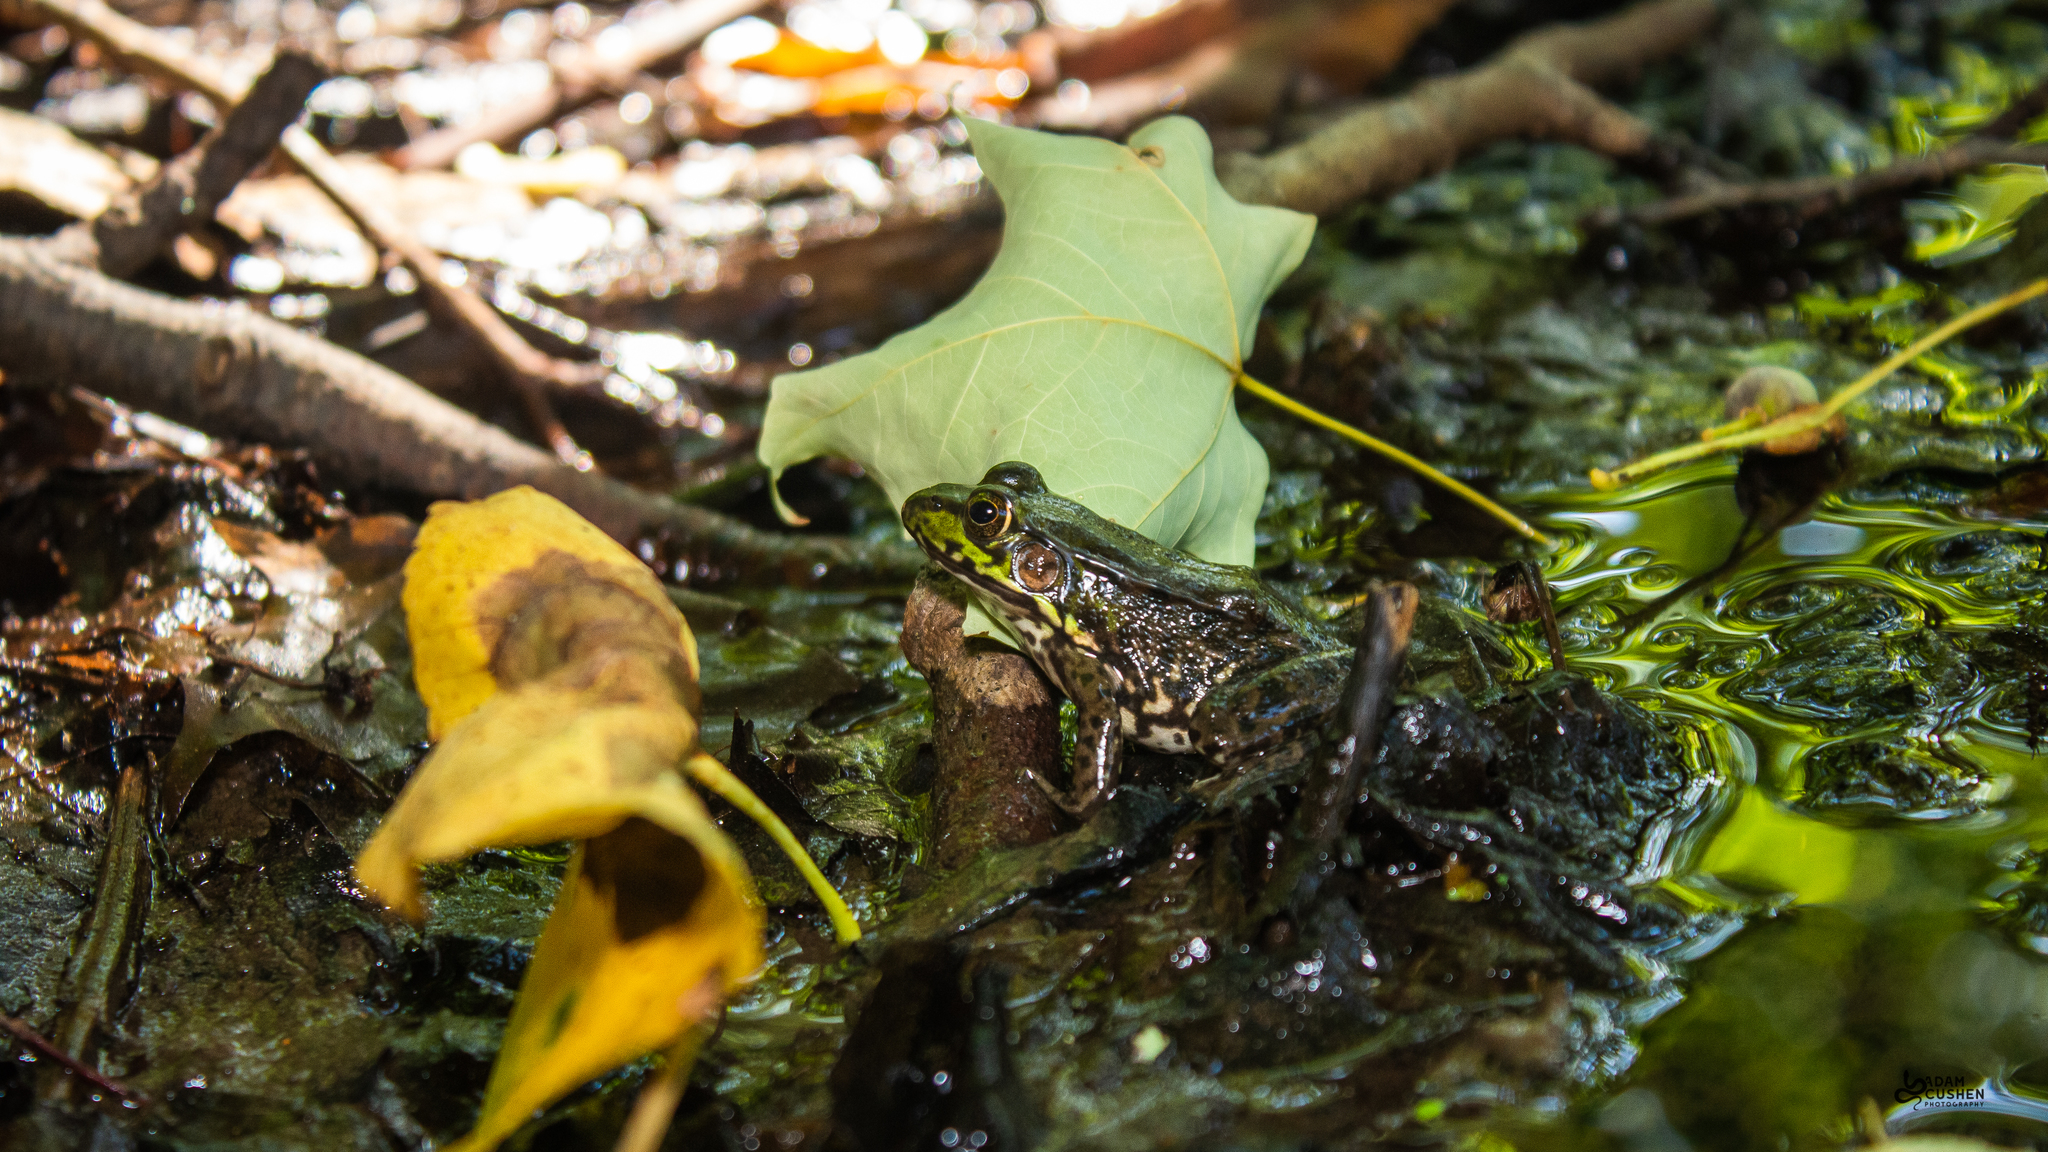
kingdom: Animalia
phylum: Chordata
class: Amphibia
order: Anura
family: Ranidae
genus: Lithobates
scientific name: Lithobates clamitans
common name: Green frog
